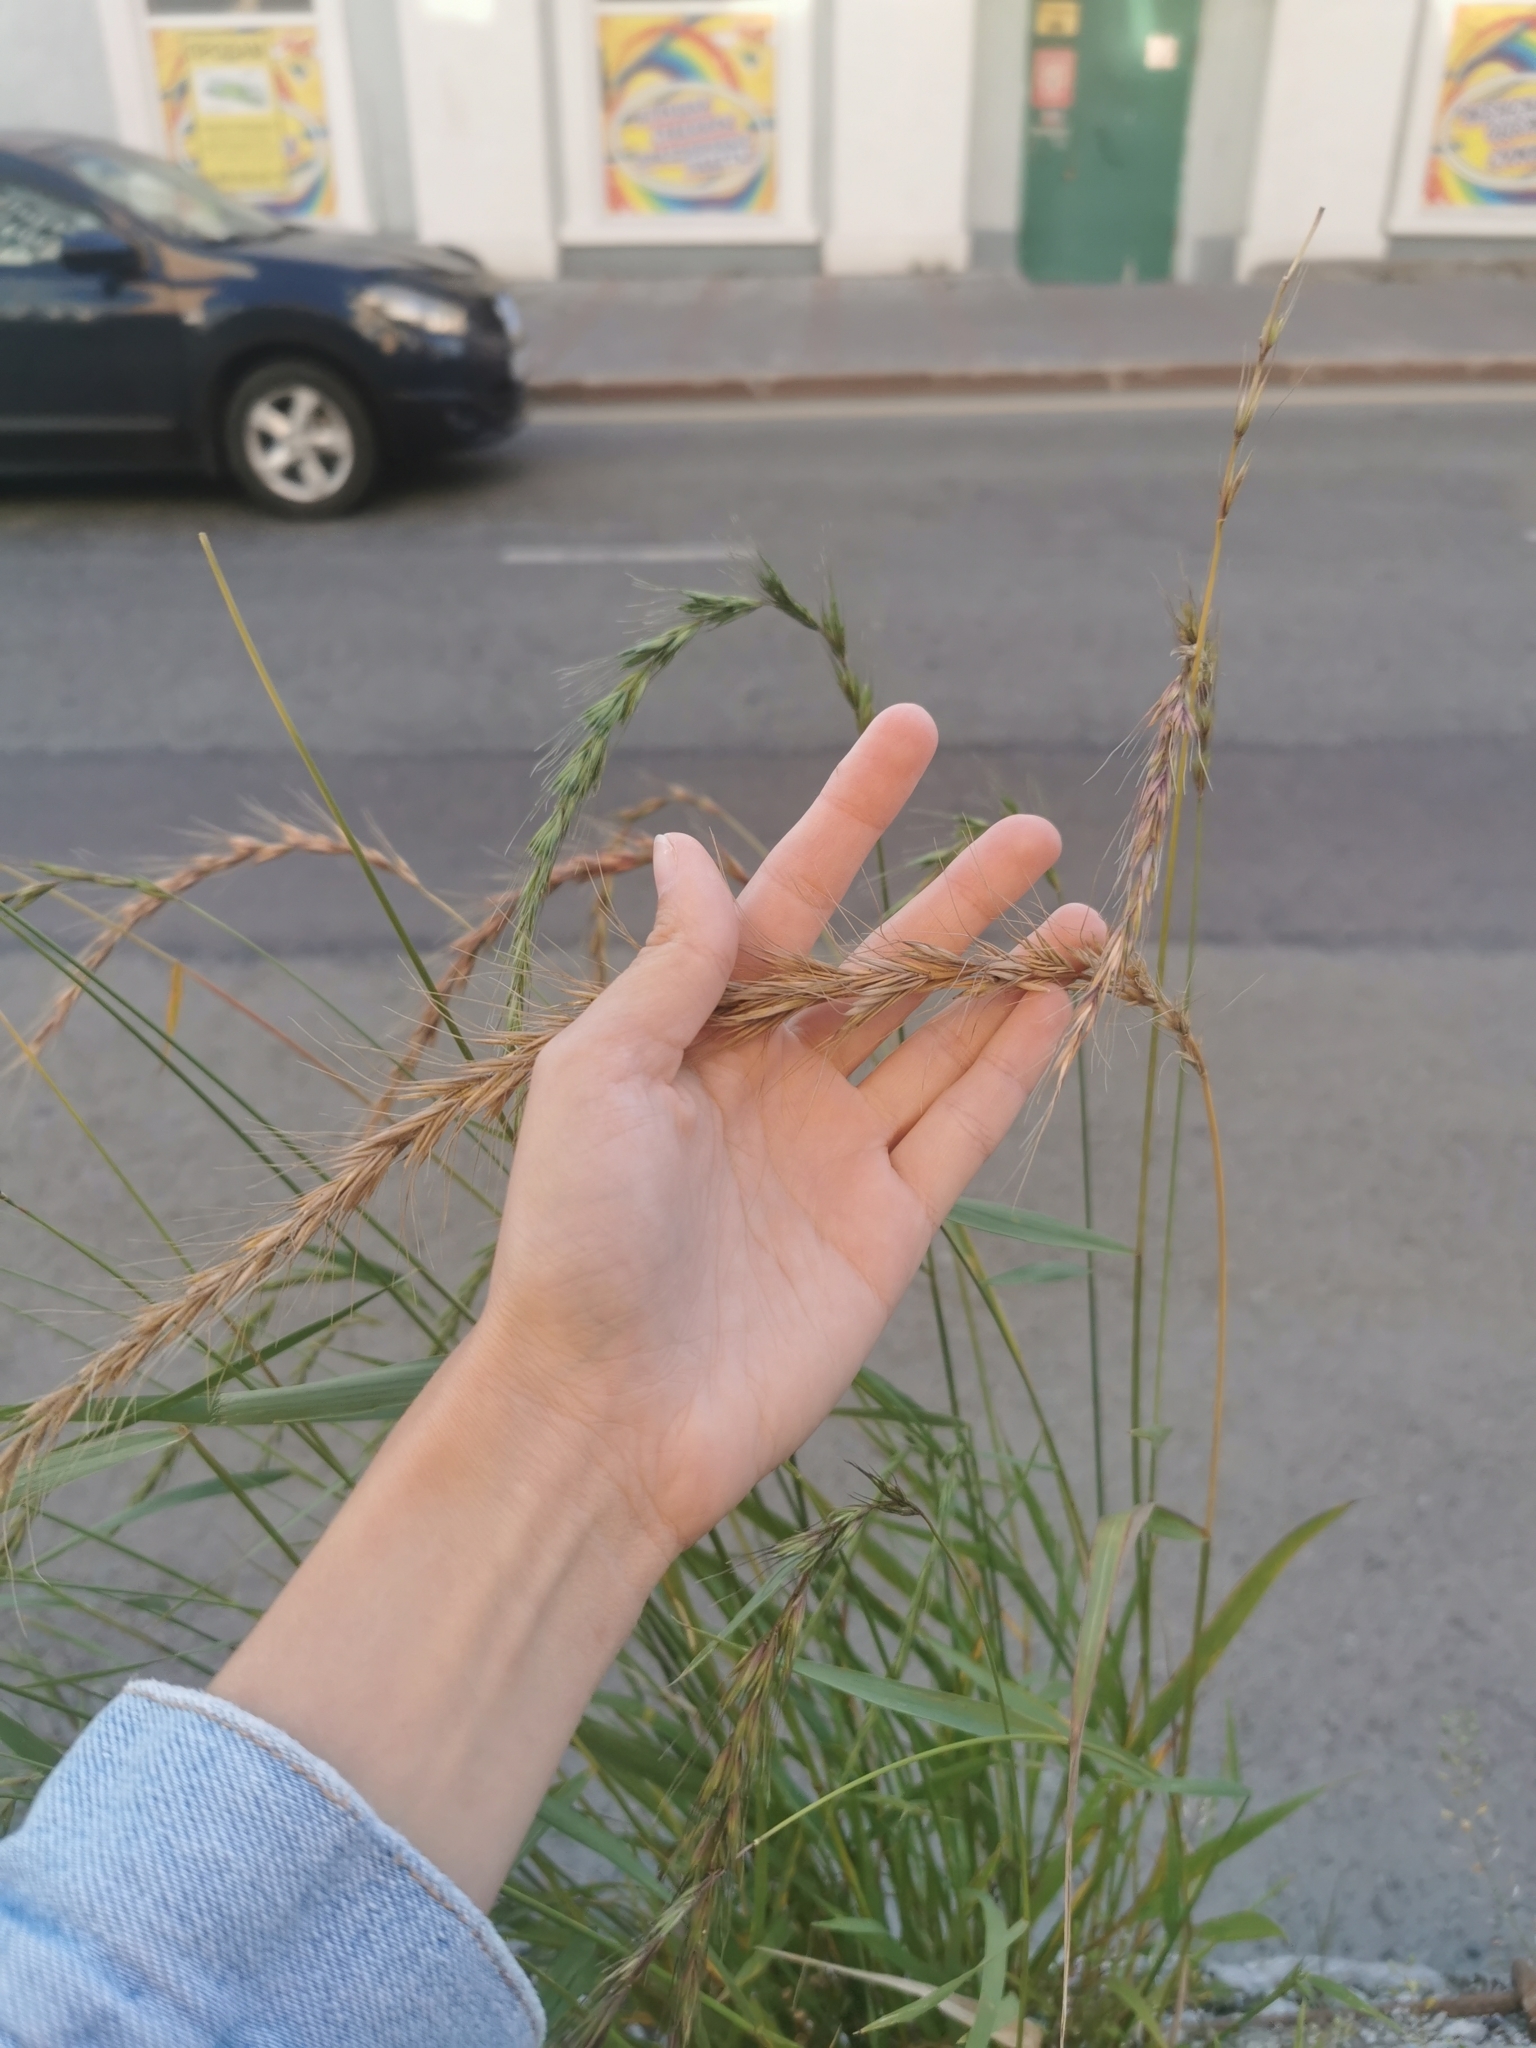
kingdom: Plantae
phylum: Tracheophyta
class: Liliopsida
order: Poales
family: Poaceae
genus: Elymus
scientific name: Elymus sibiricus
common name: Siberian wildrye
